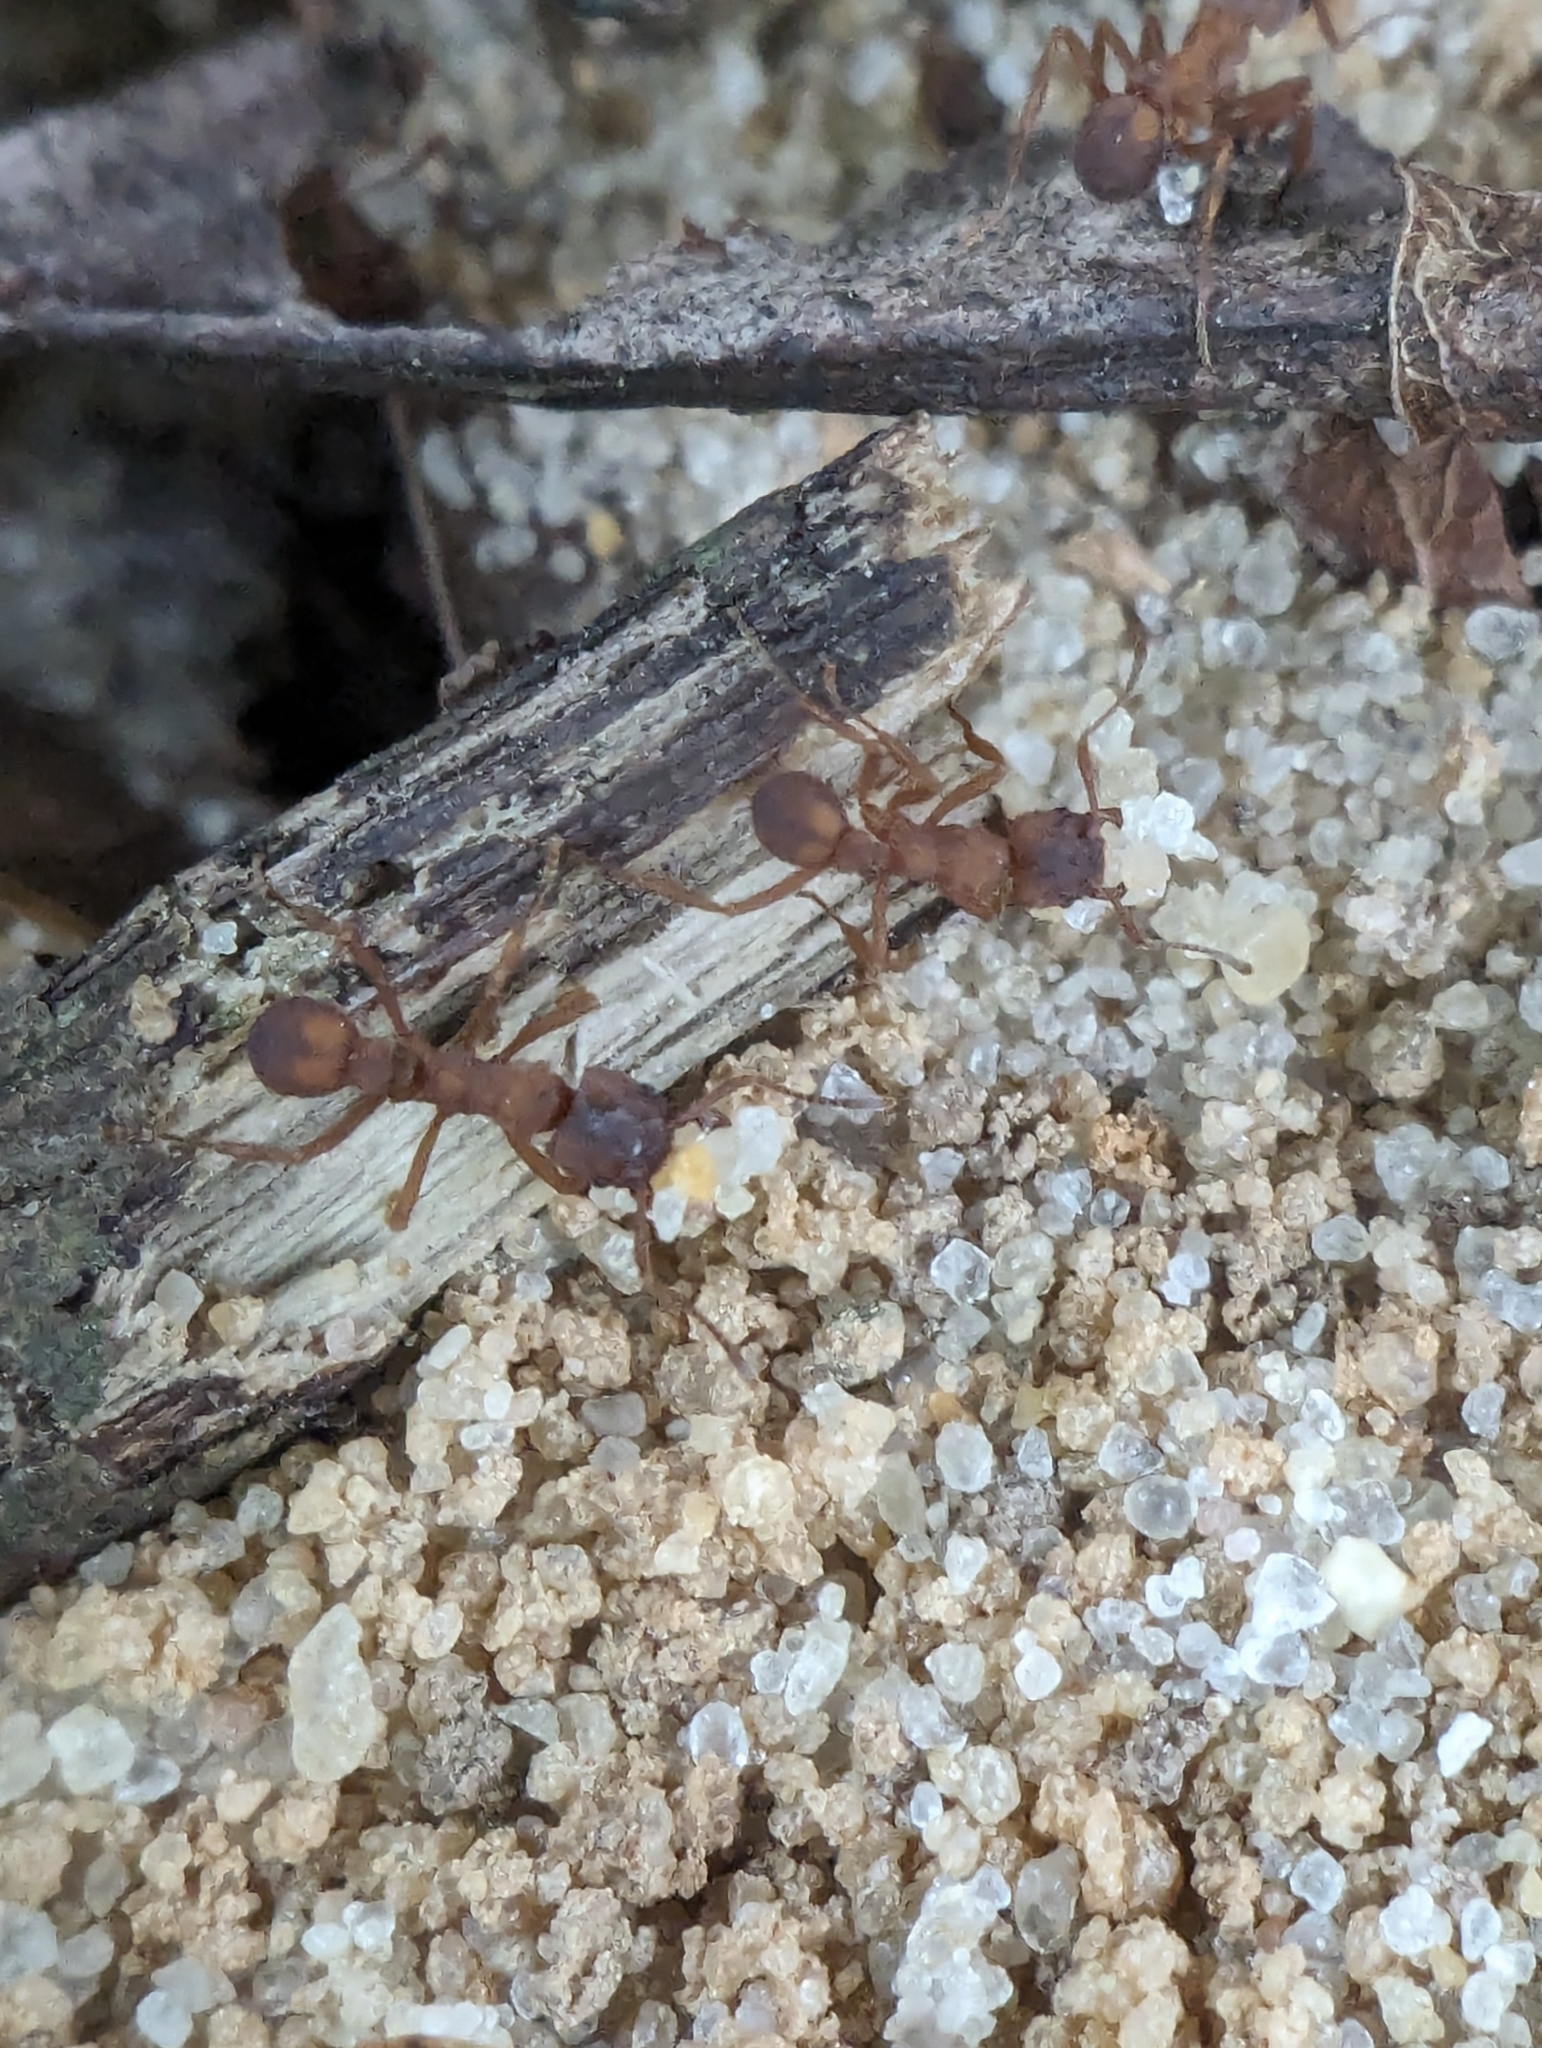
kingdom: Animalia
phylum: Arthropoda
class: Insecta
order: Hymenoptera
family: Formicidae
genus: Trachymyrmex
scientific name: Trachymyrmex septentrionalis
